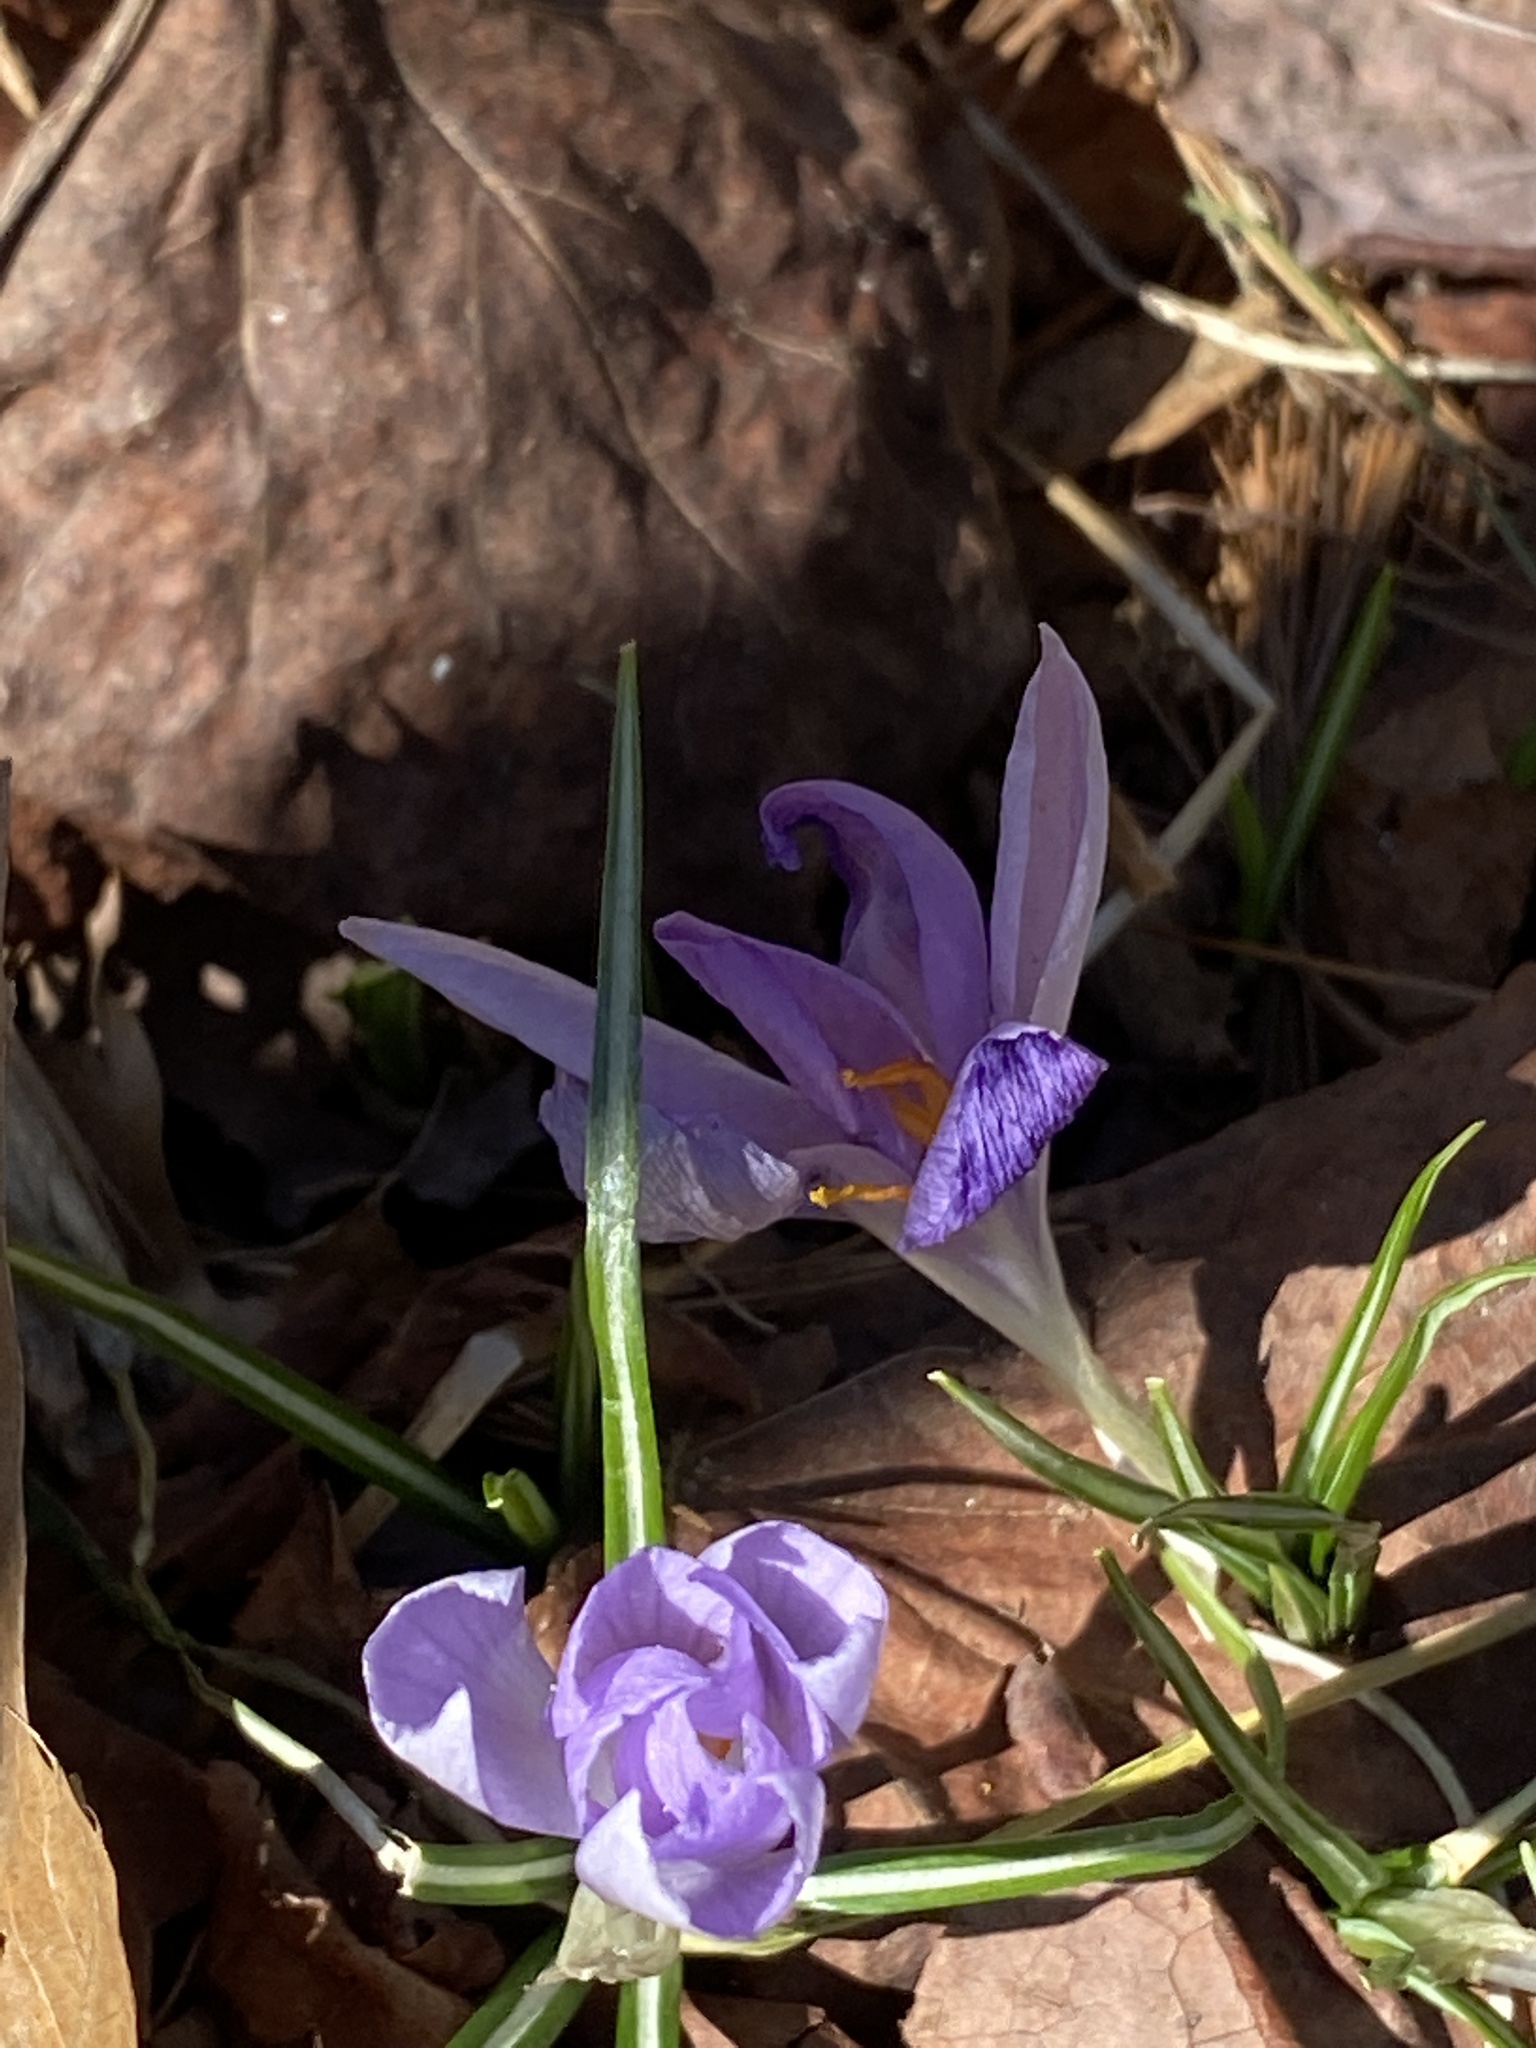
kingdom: Plantae
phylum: Tracheophyta
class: Liliopsida
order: Asparagales
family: Iridaceae
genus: Crocus
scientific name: Crocus tommasinianus
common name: Early crocus
